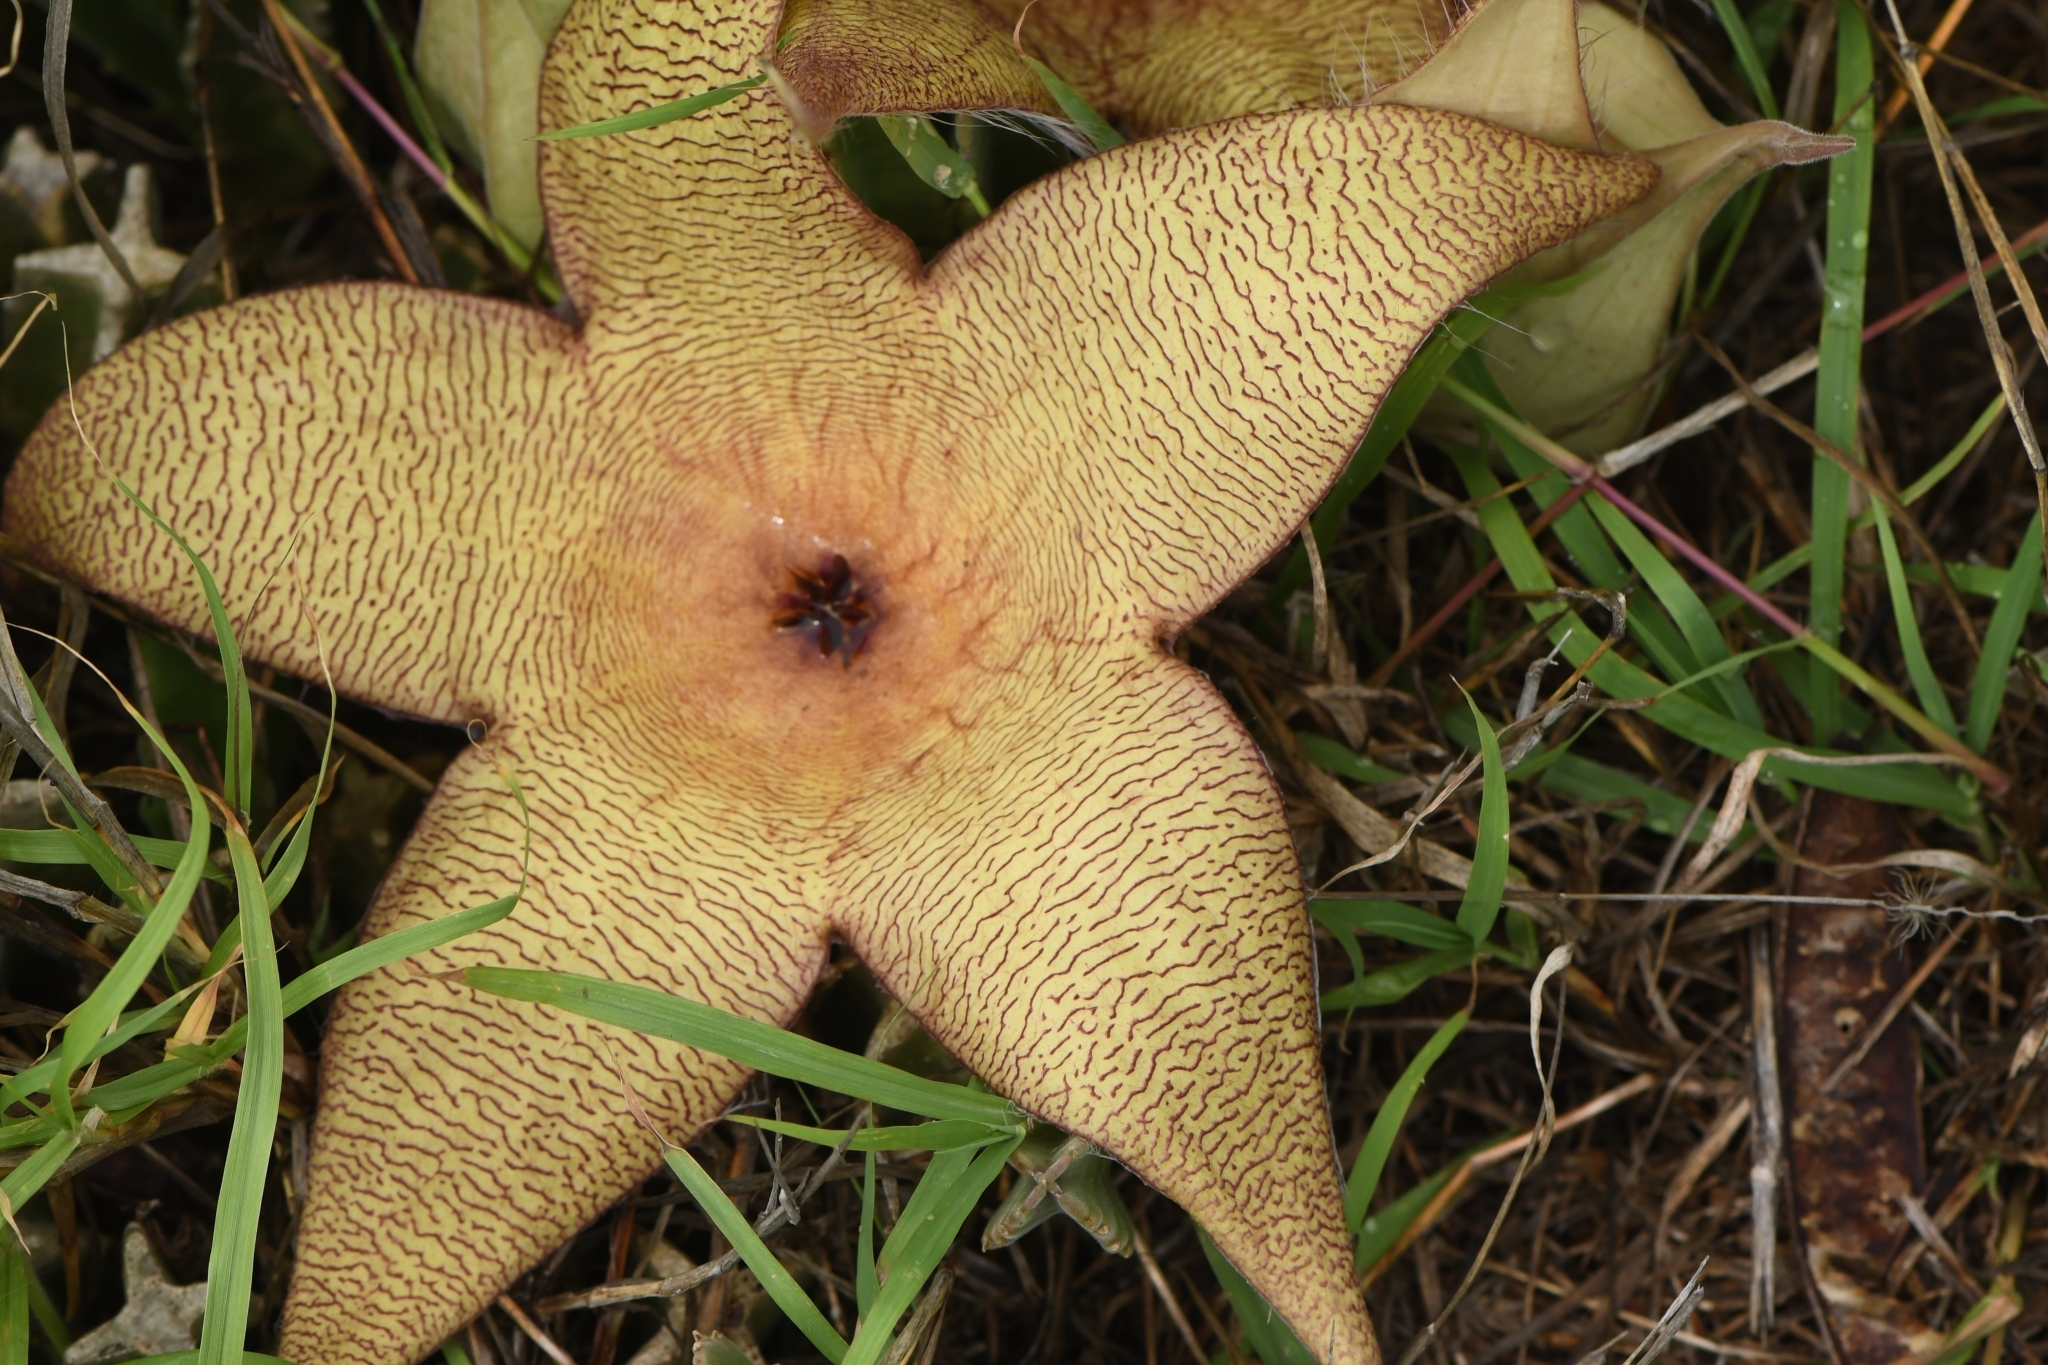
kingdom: Plantae
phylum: Tracheophyta
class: Magnoliopsida
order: Gentianales
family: Apocynaceae
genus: Ceropegia
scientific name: Ceropegia gigantea
